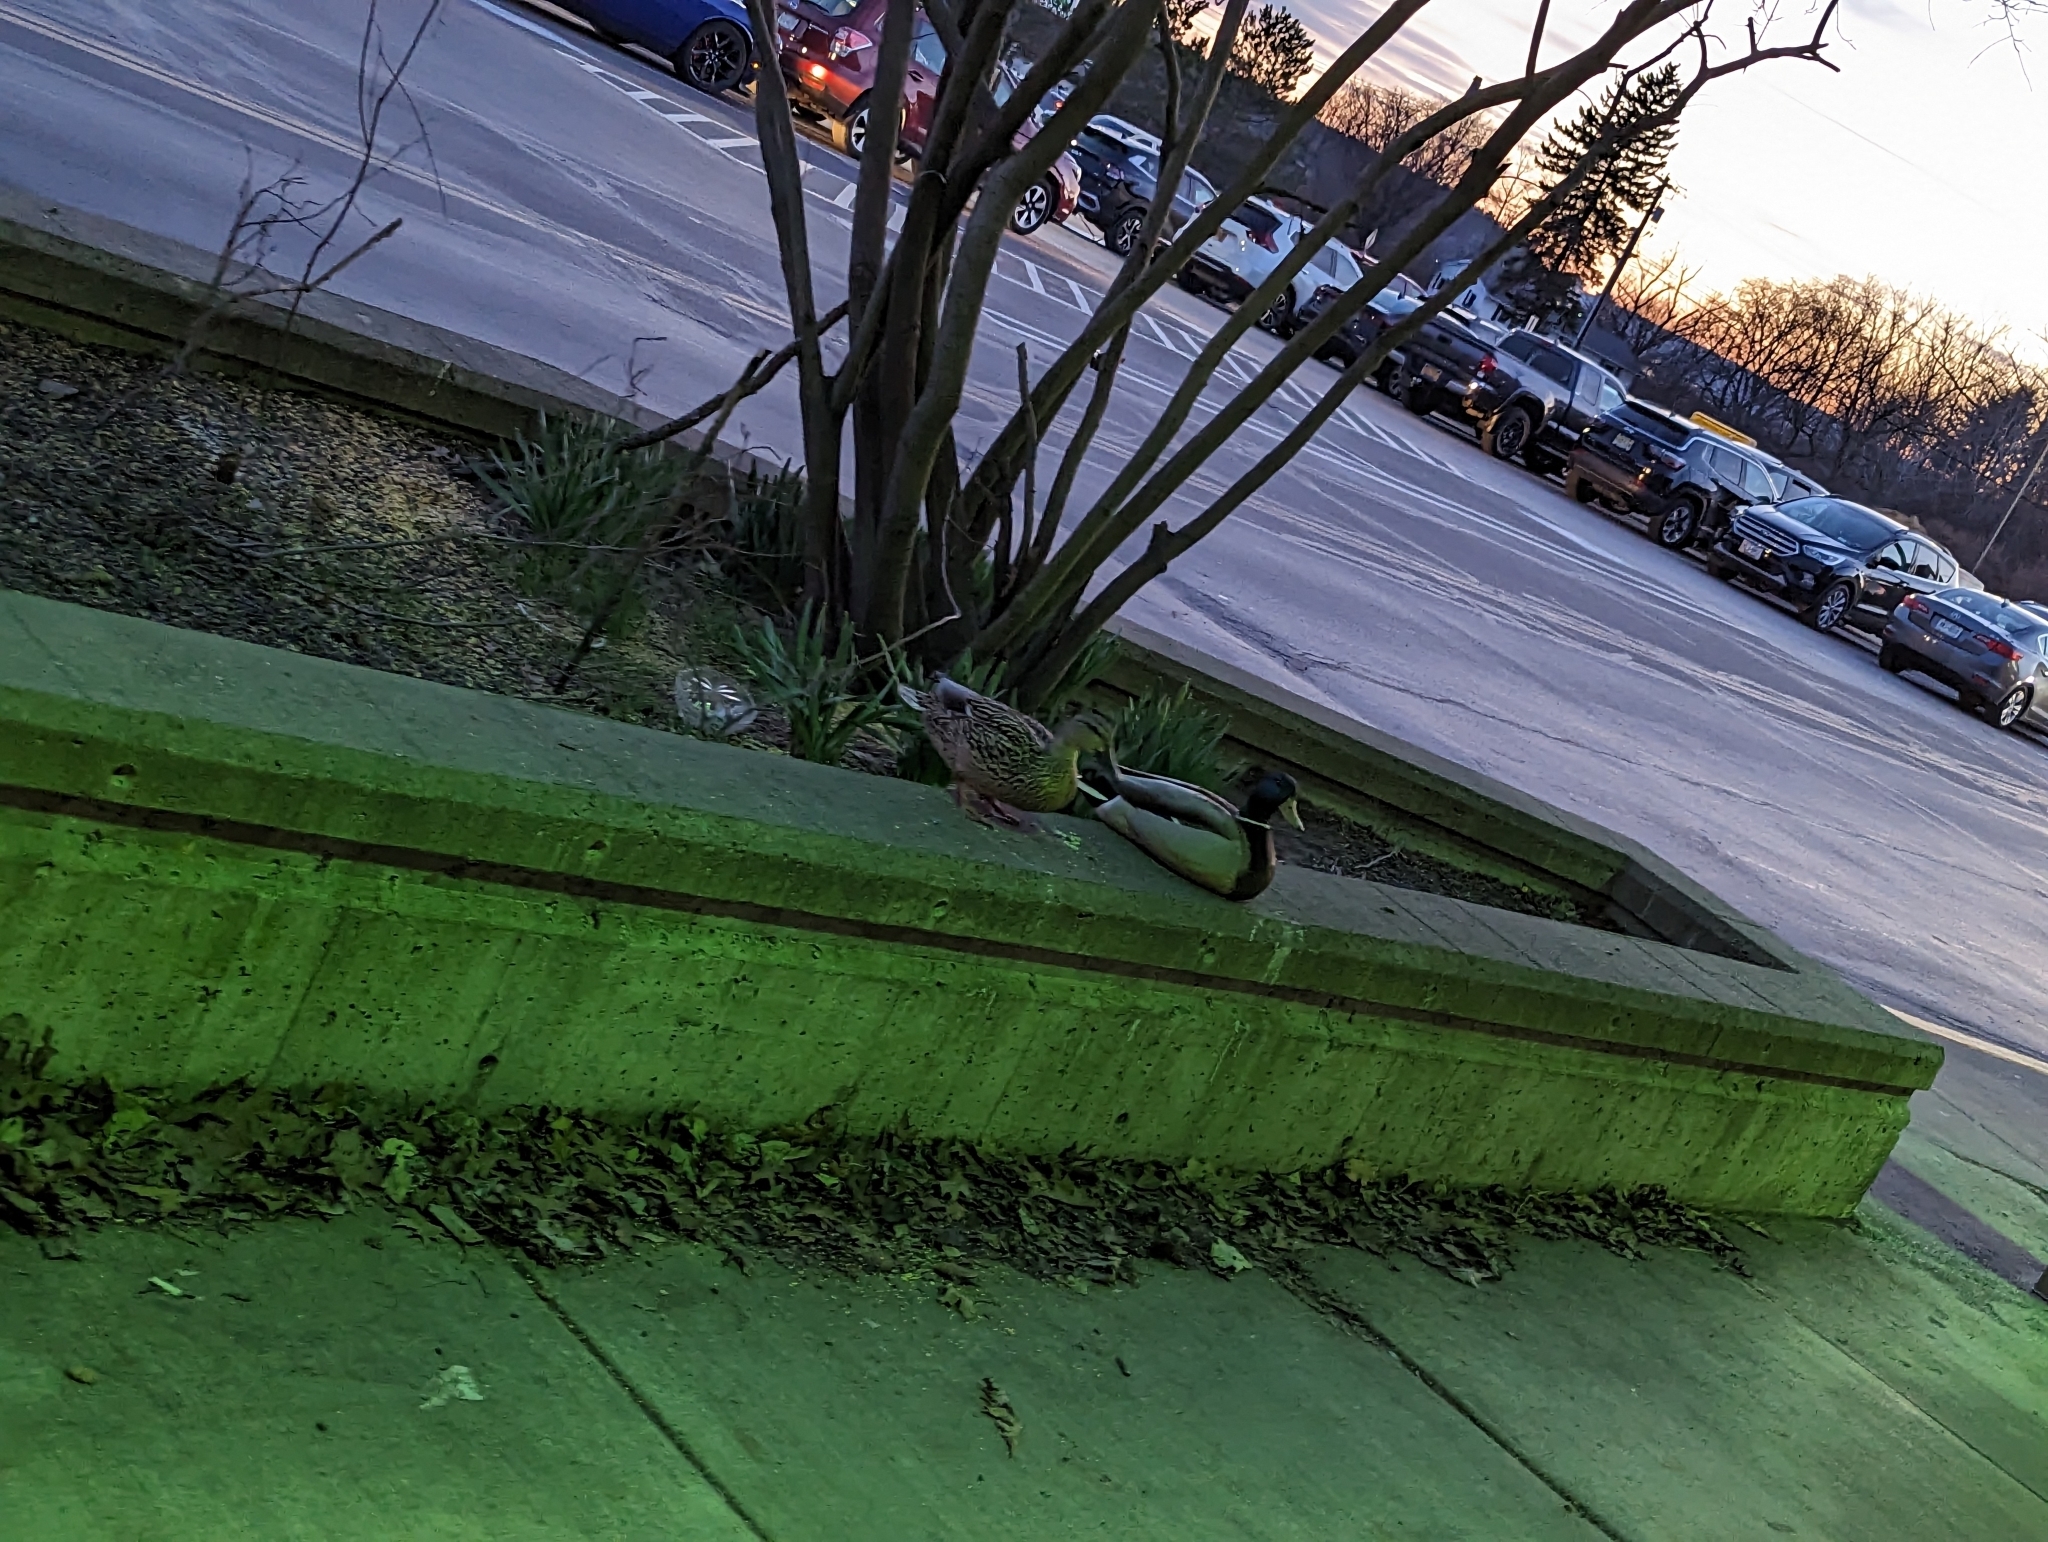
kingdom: Animalia
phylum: Chordata
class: Aves
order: Anseriformes
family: Anatidae
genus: Anas
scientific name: Anas platyrhynchos
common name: Mallard
